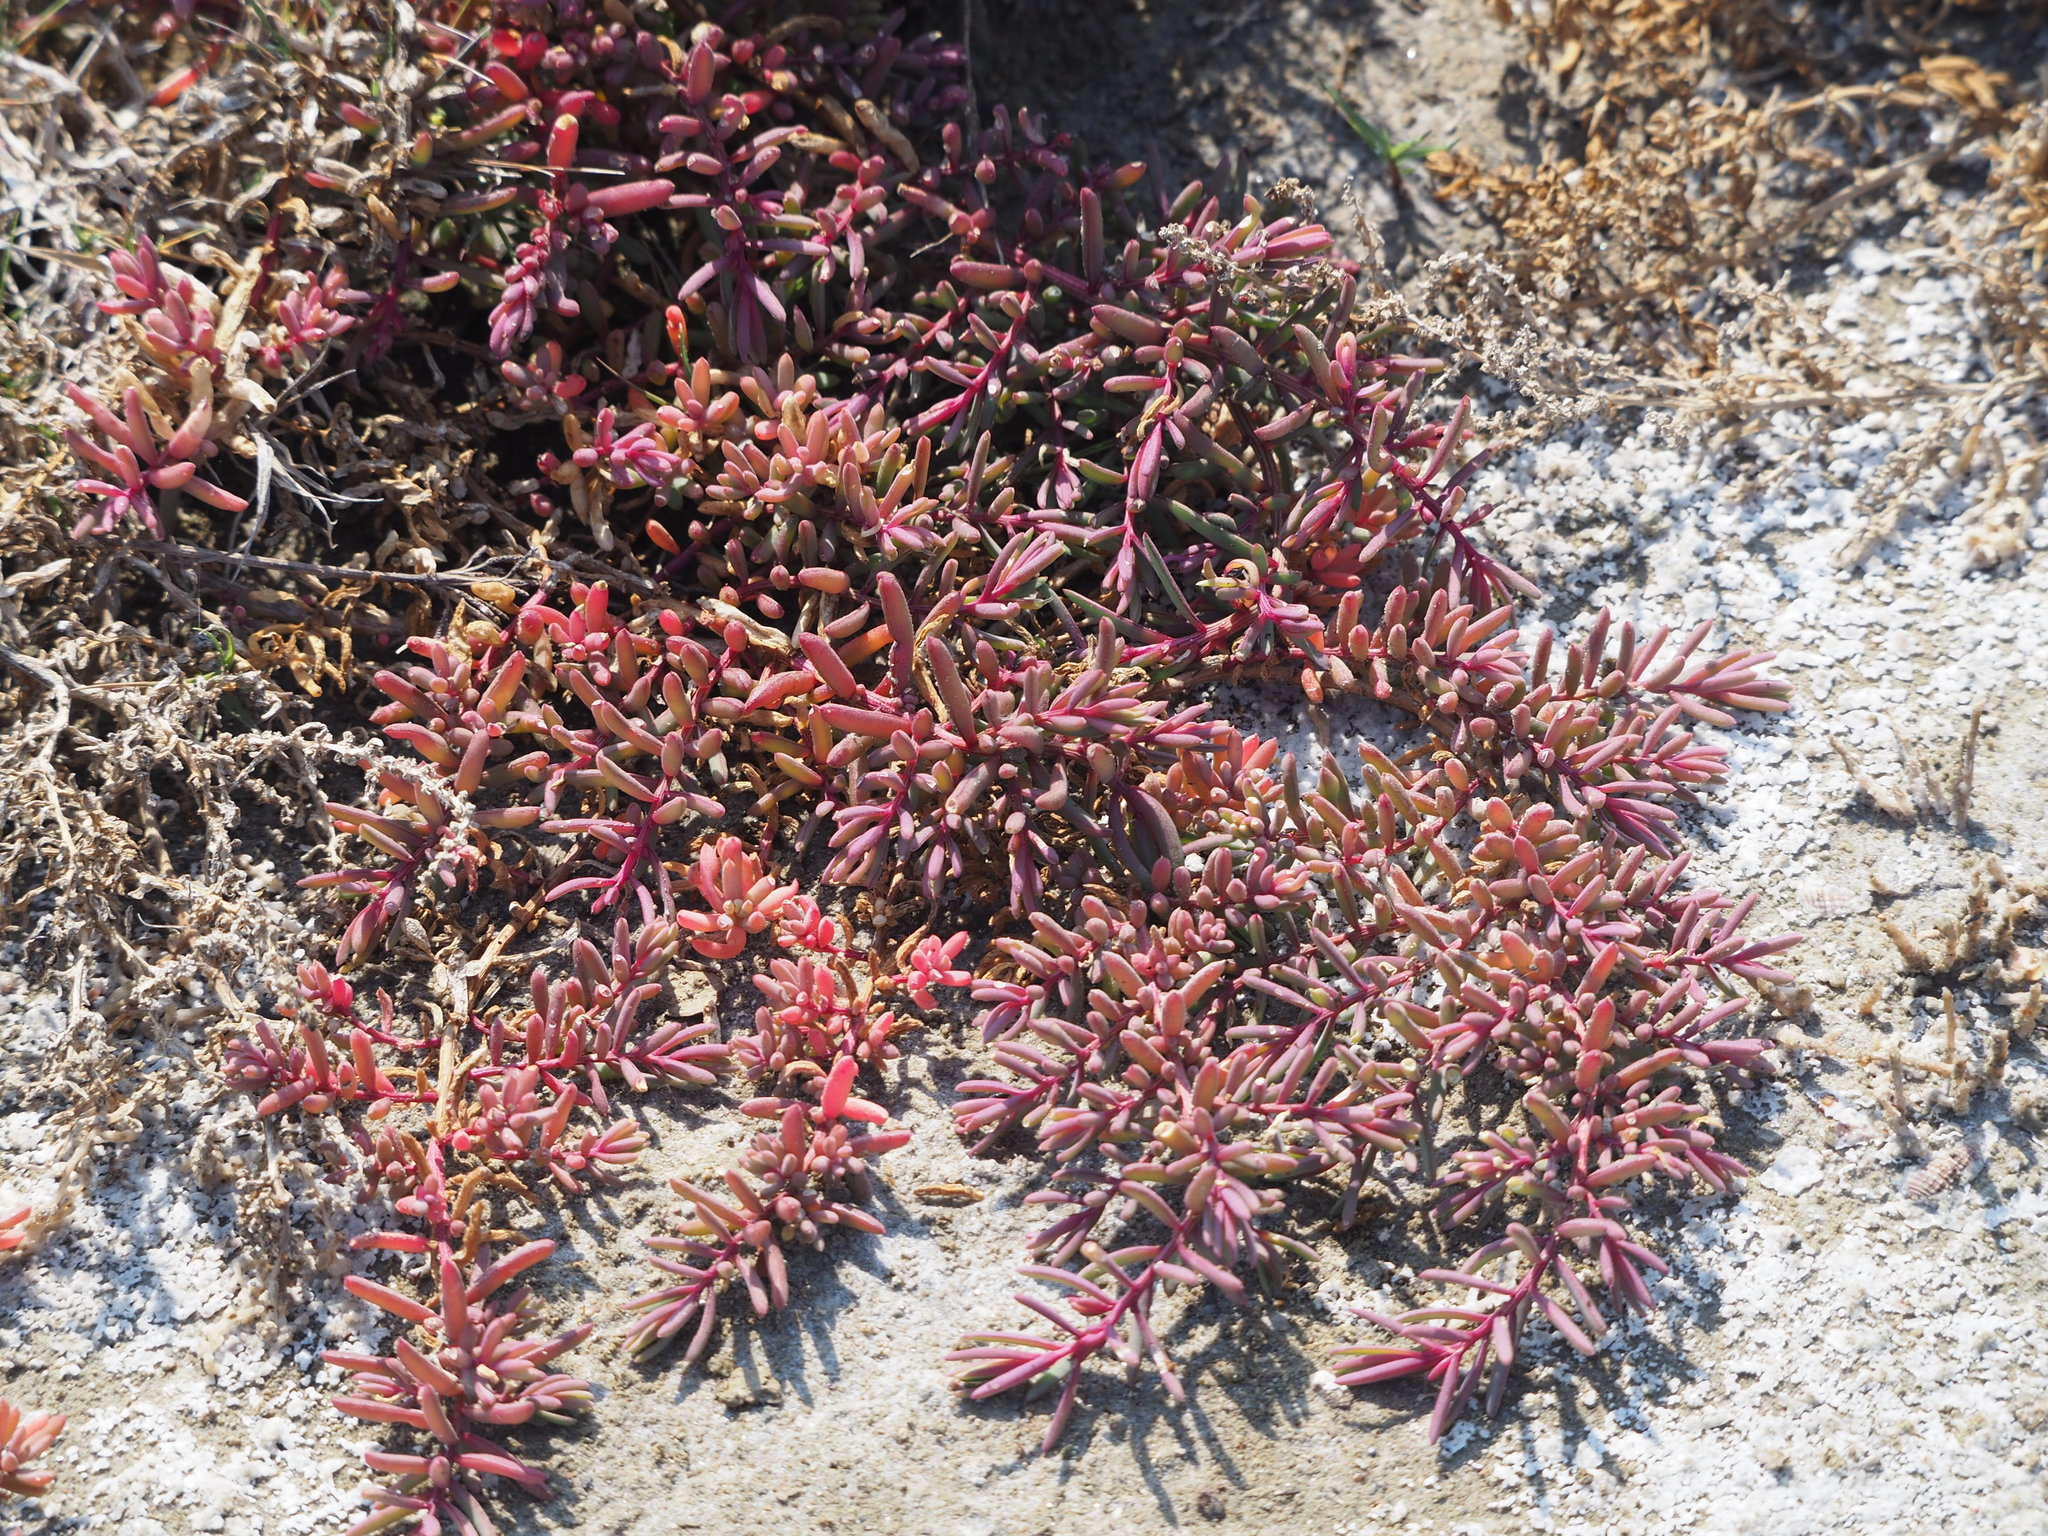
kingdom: Plantae
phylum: Tracheophyta
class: Magnoliopsida
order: Caryophyllales
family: Amaranthaceae
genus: Suaeda
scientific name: Suaeda maritima
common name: Annual sea-blite
